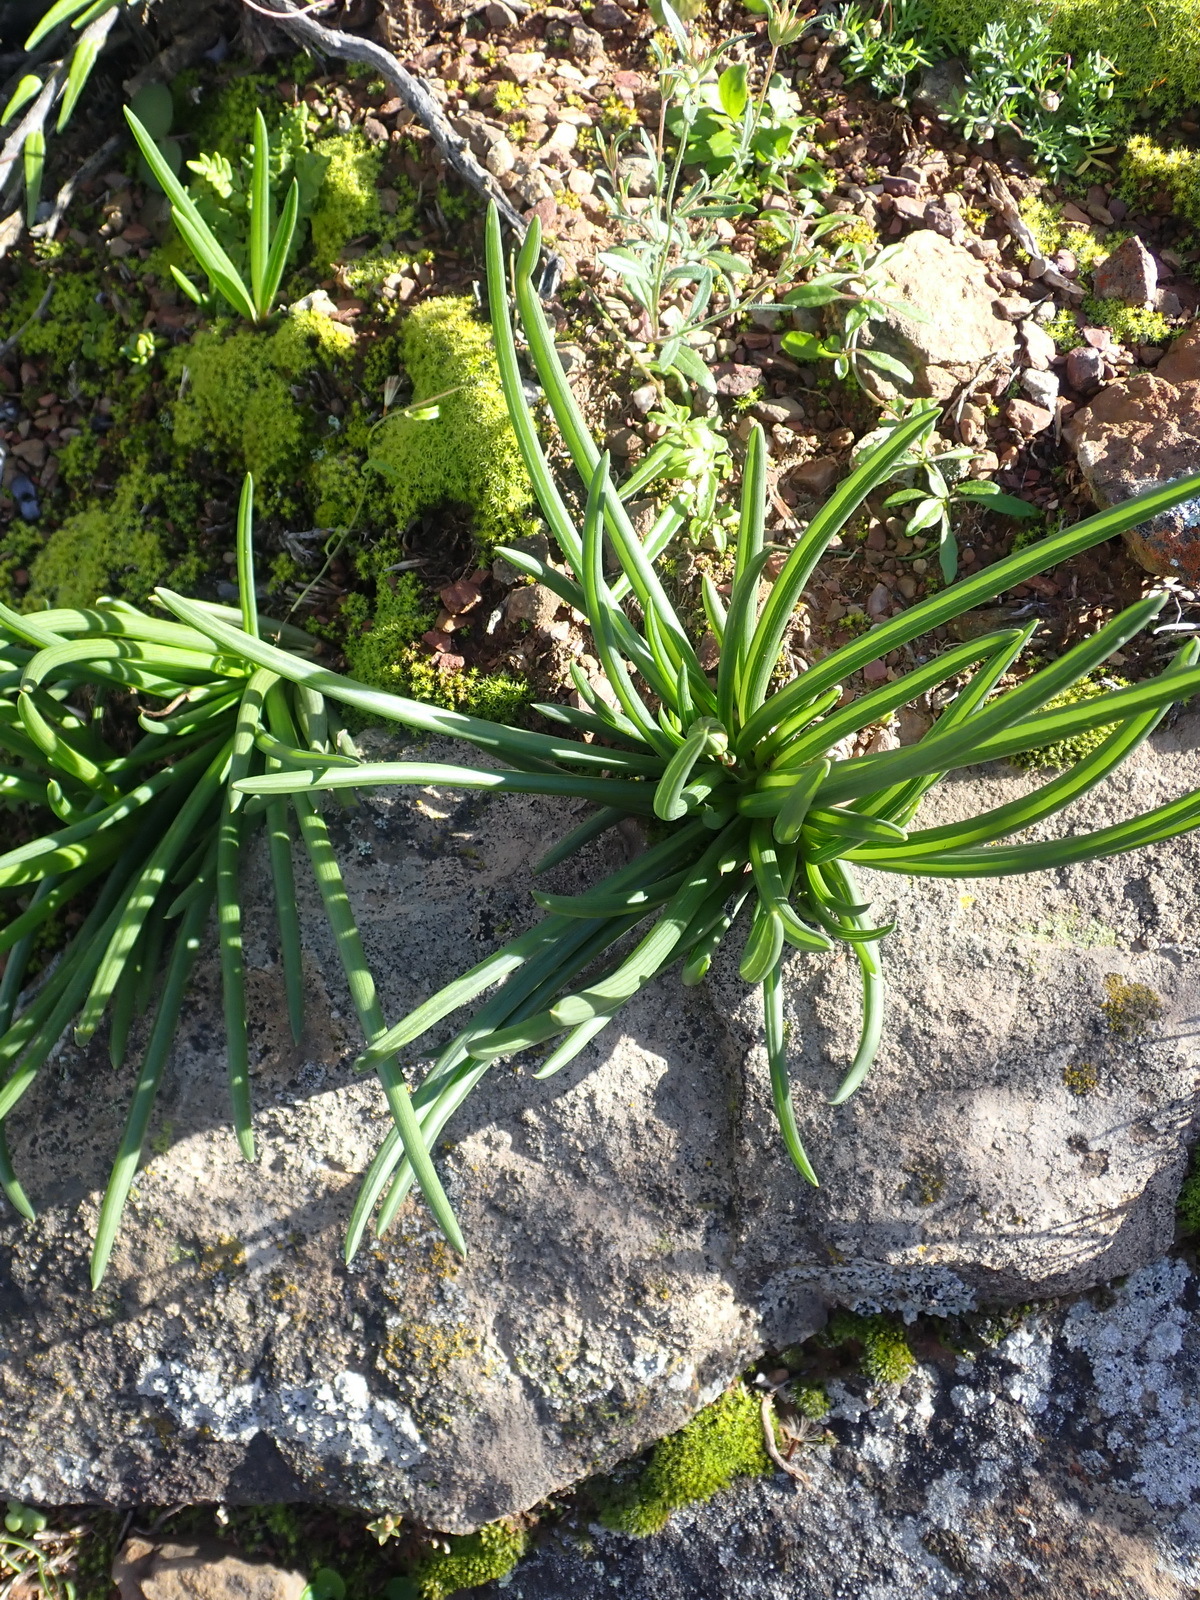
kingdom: Plantae
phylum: Tracheophyta
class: Magnoliopsida
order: Asterales
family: Asteraceae
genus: Curio
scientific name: Curio acaulis
